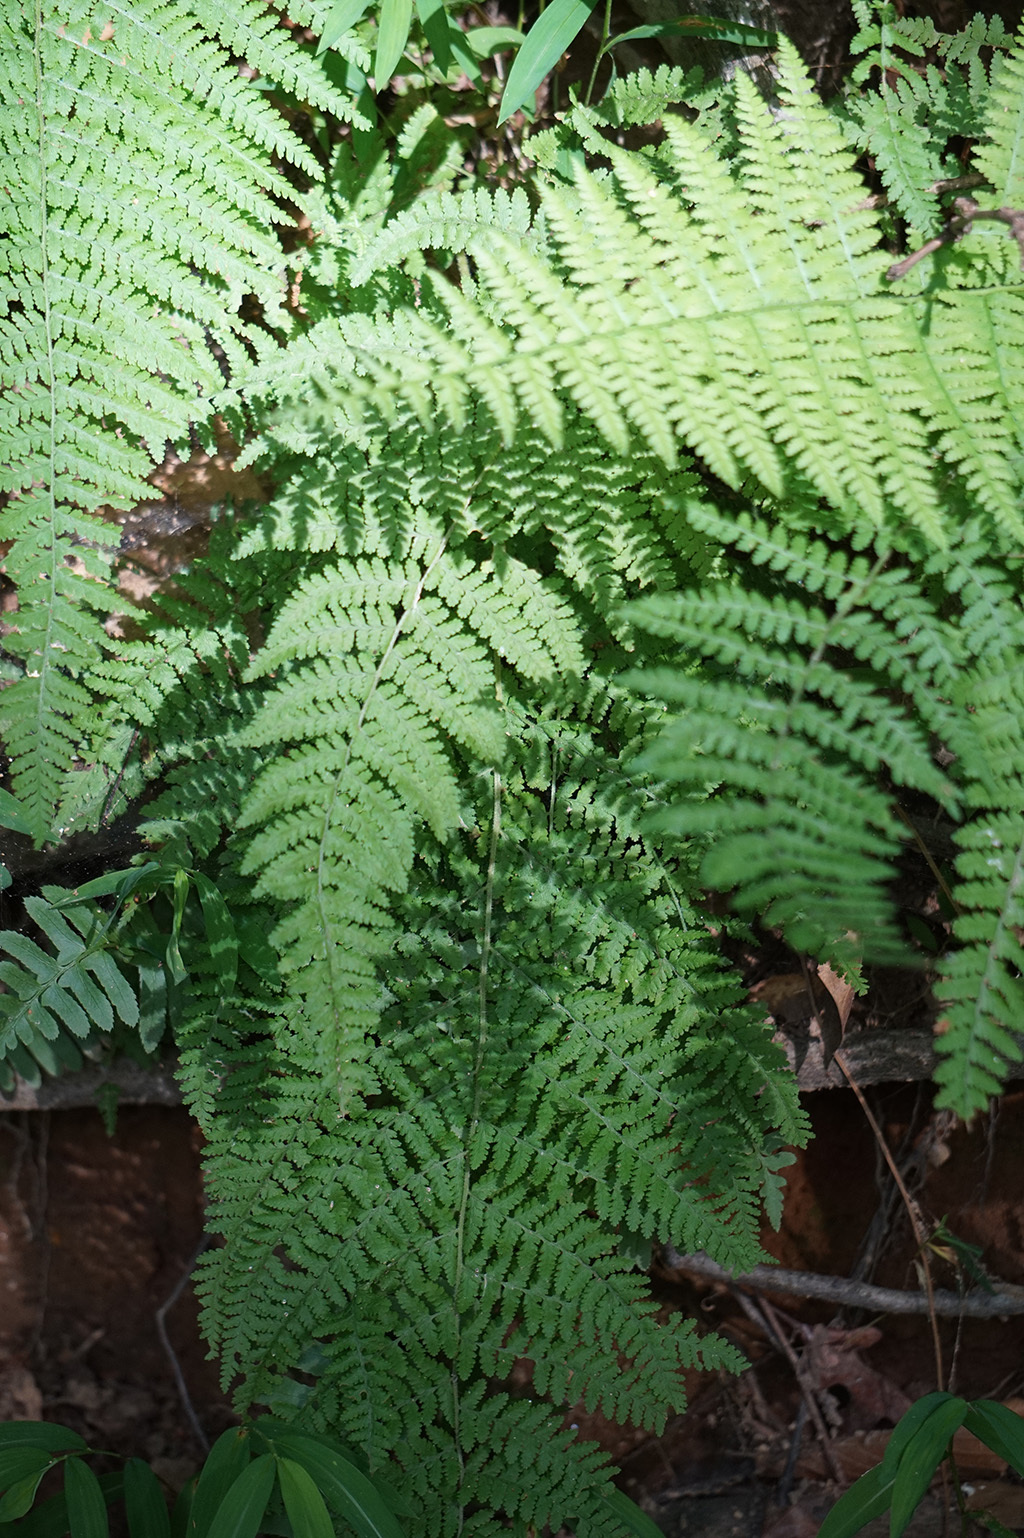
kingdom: Plantae
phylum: Tracheophyta
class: Polypodiopsida
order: Polypodiales
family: Dennstaedtiaceae
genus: Sitobolium
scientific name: Sitobolium punctilobum
